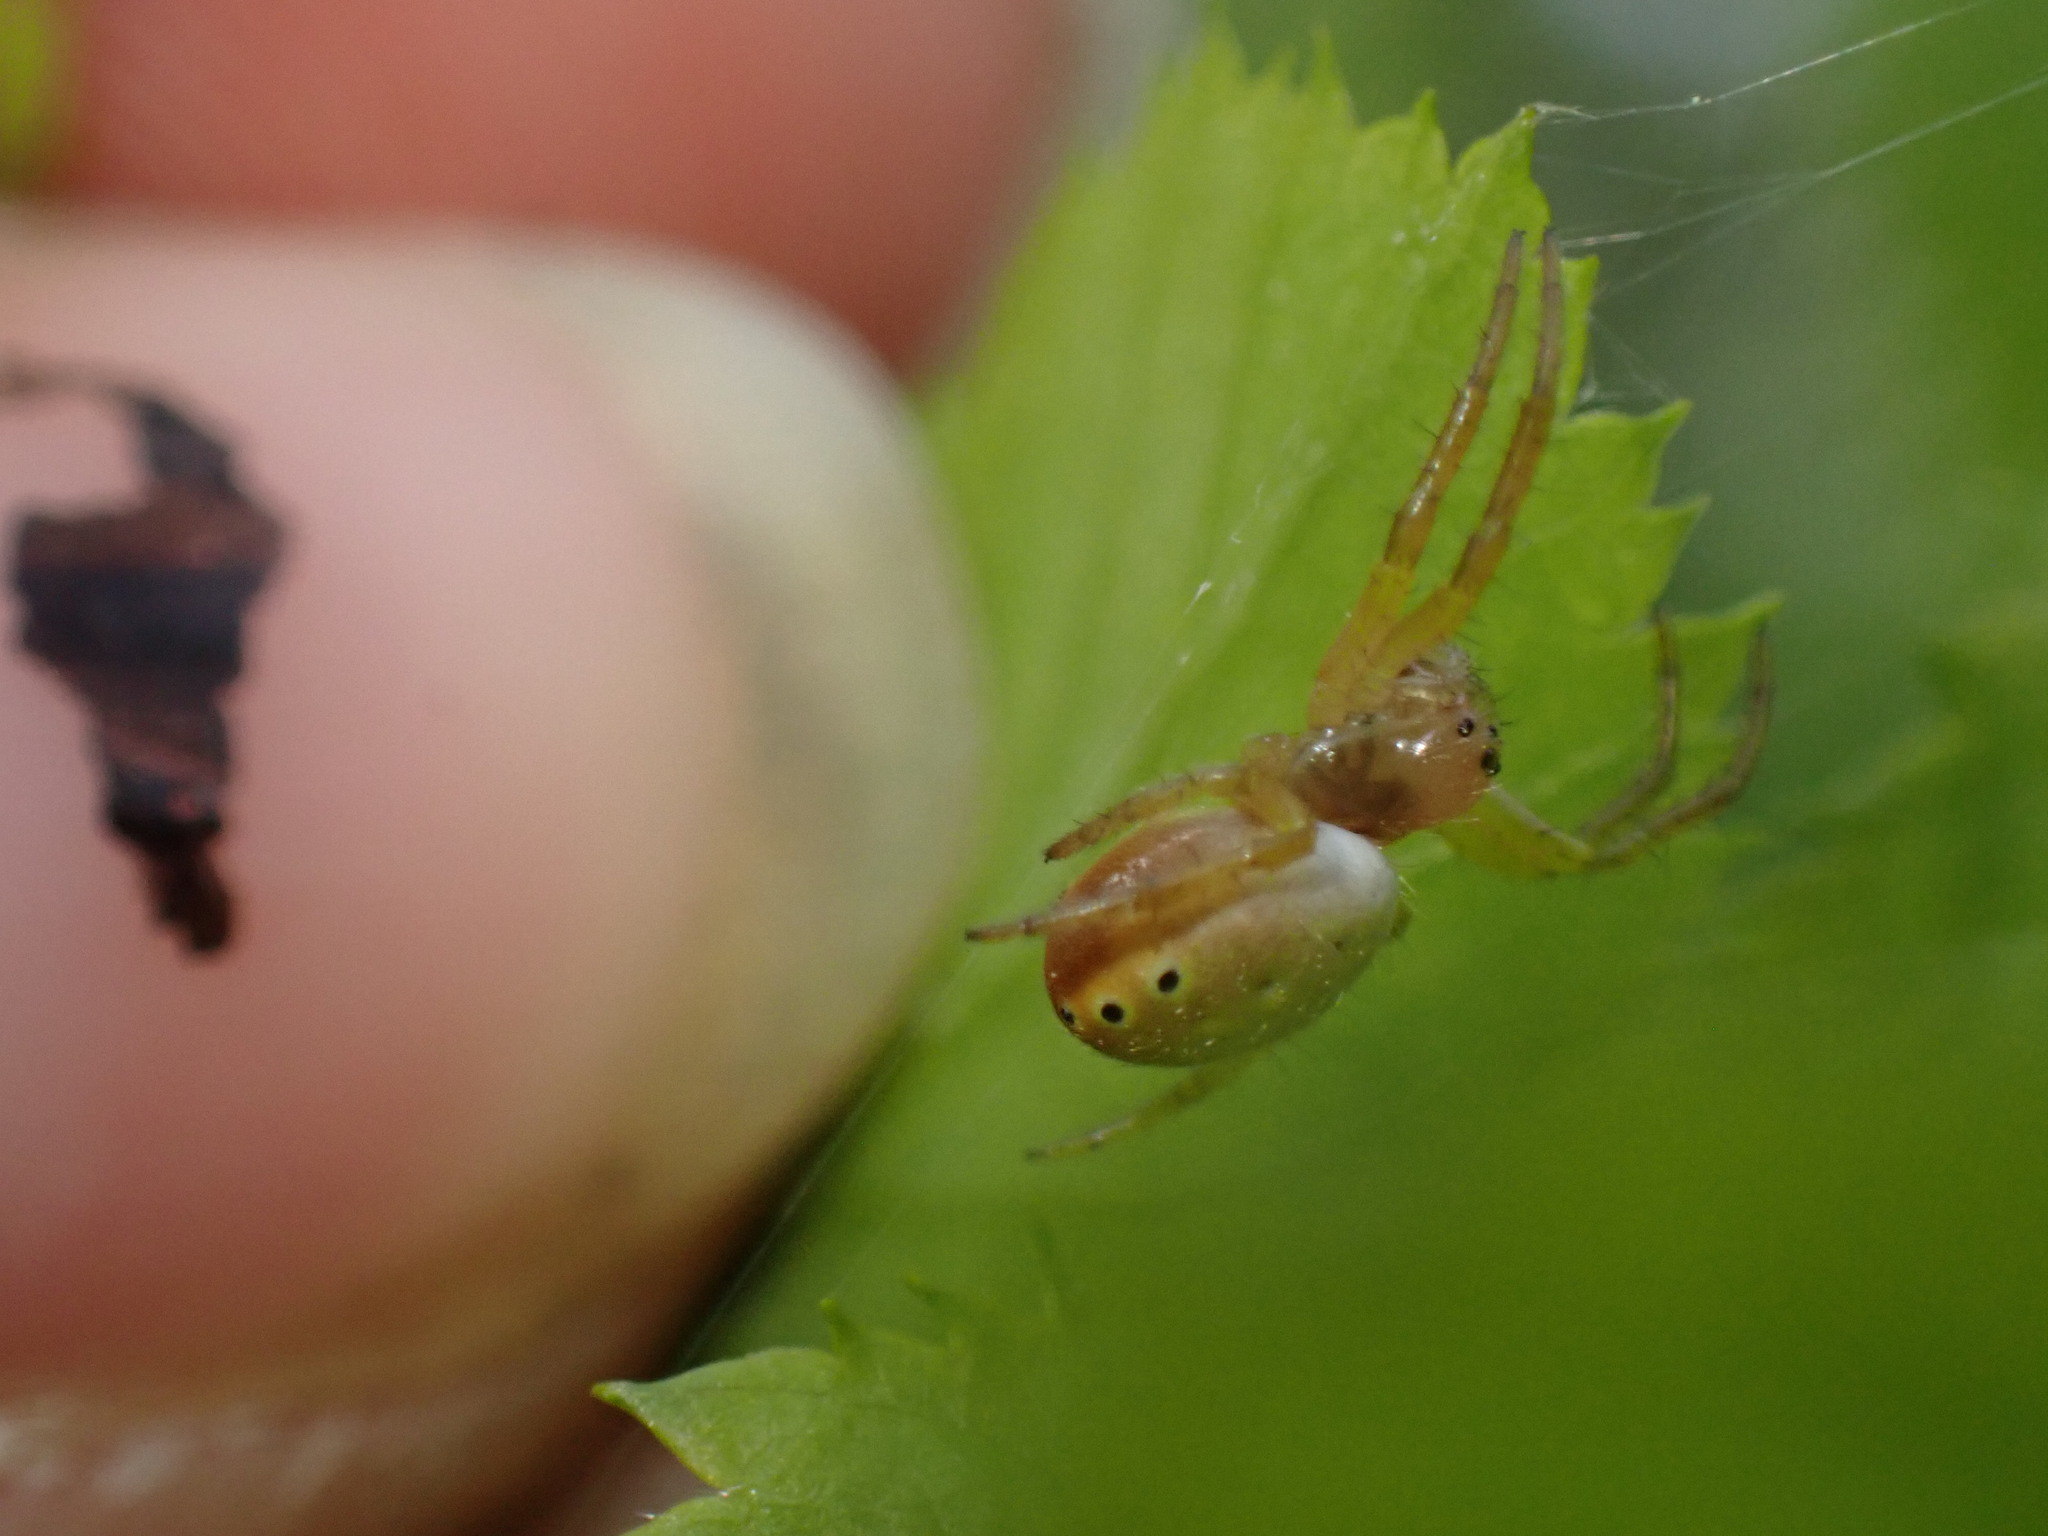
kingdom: Animalia
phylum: Arthropoda
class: Arachnida
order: Araneae
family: Araneidae
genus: Araniella
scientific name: Araniella displicata
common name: Sixspotted orb weaver
